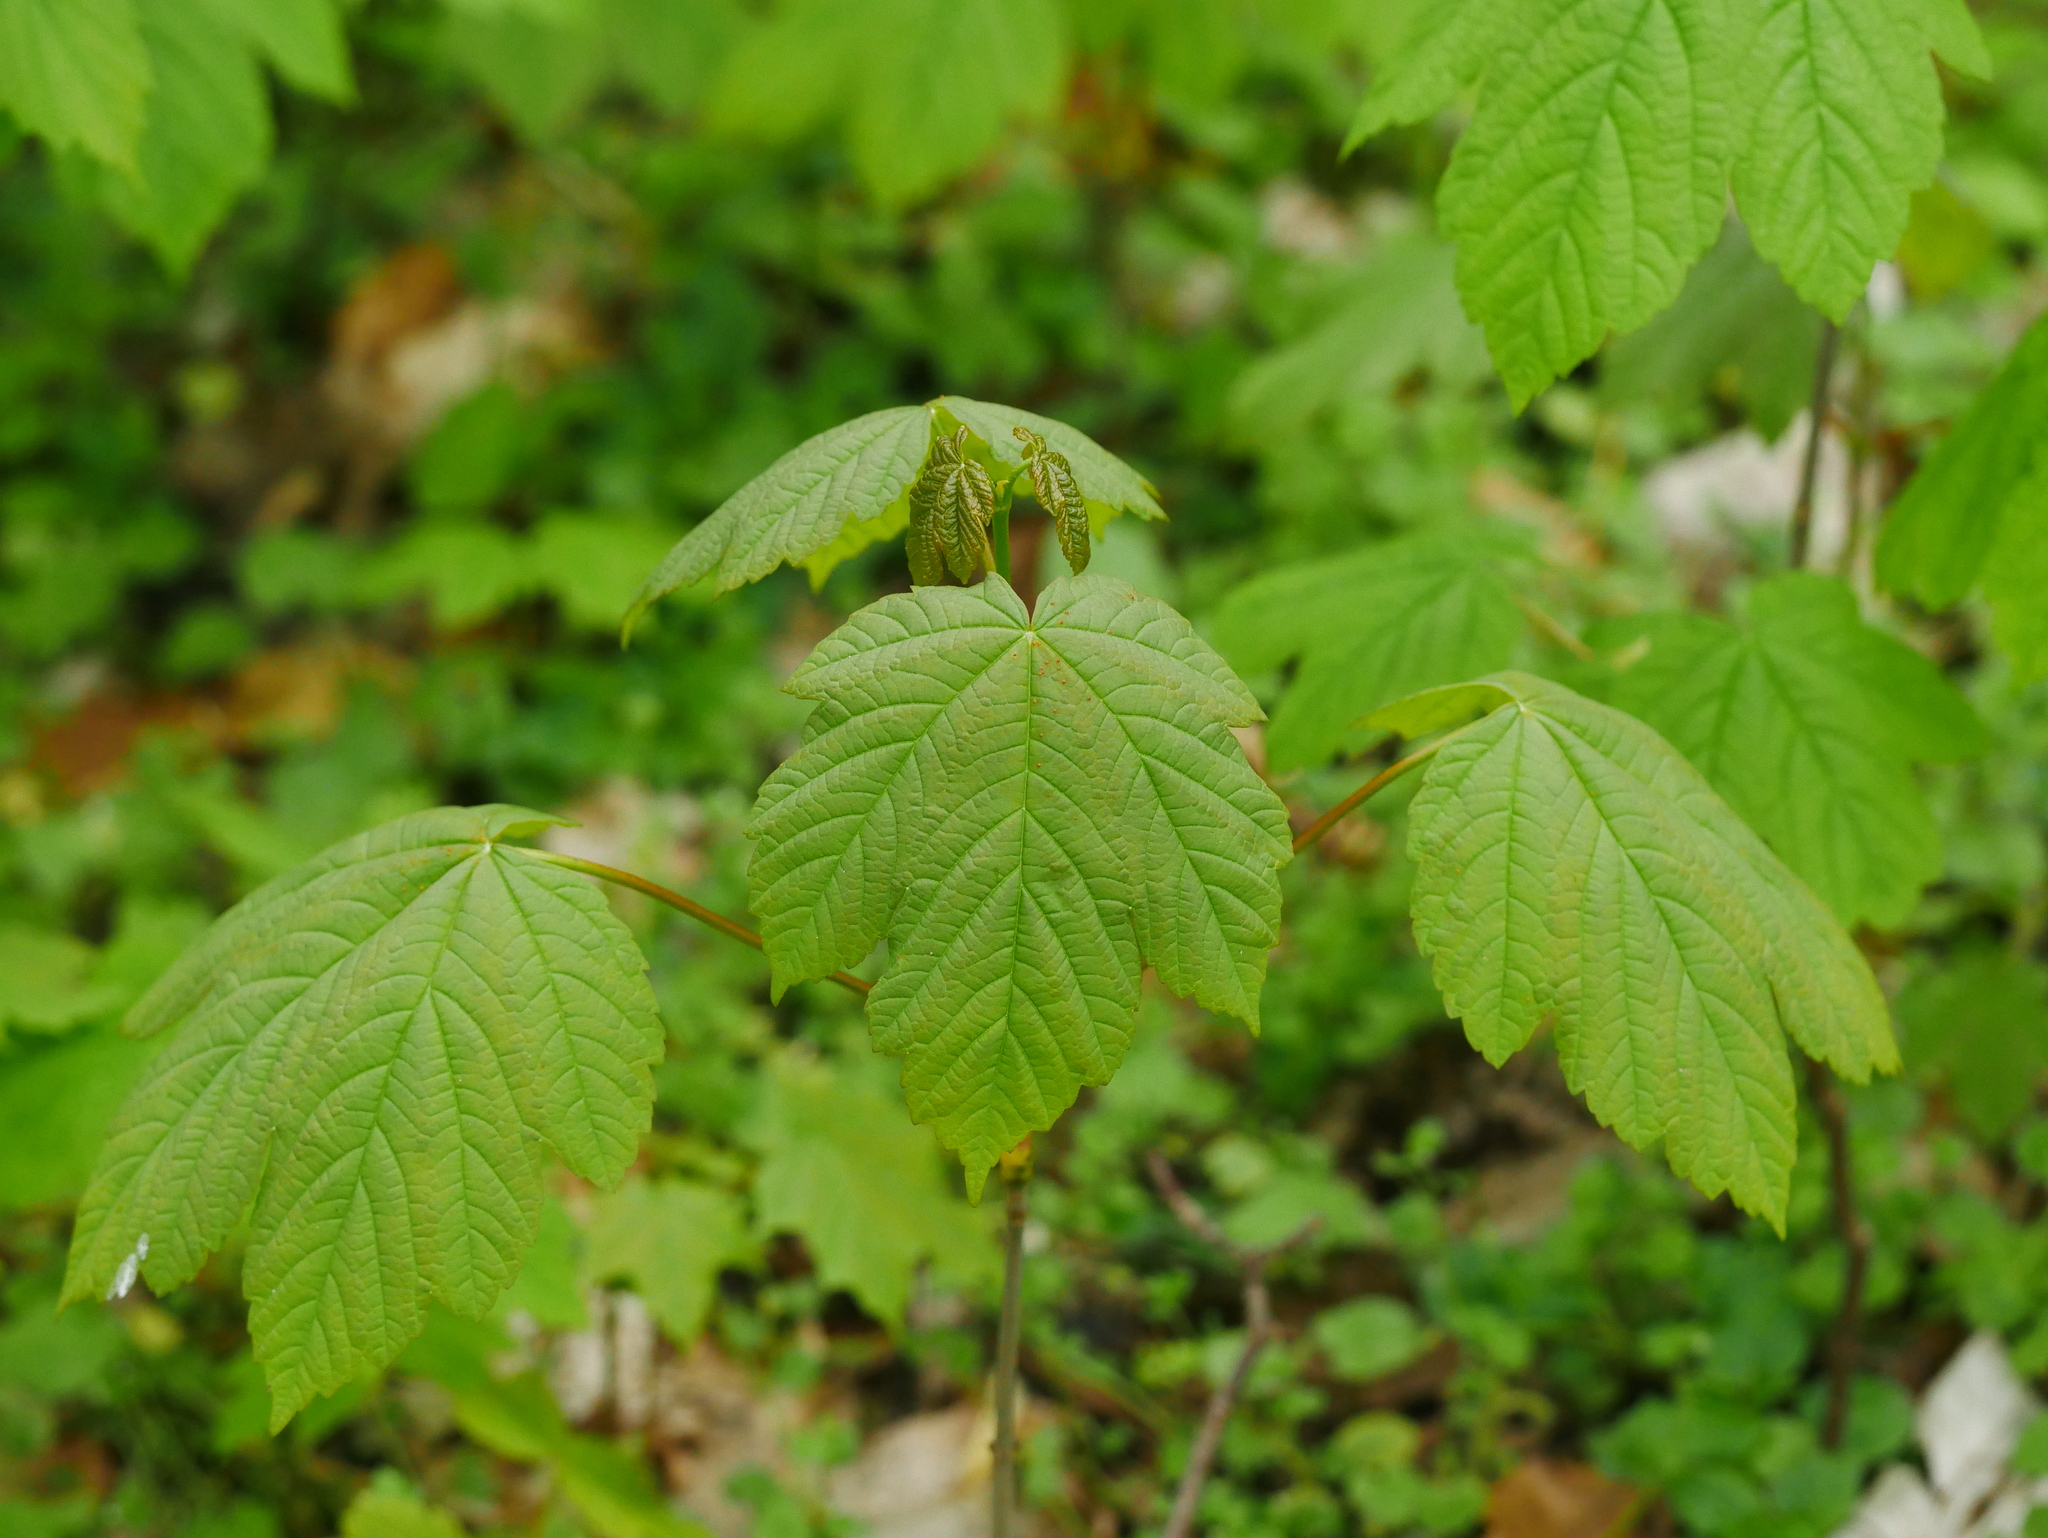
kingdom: Plantae
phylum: Tracheophyta
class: Magnoliopsida
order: Sapindales
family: Sapindaceae
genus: Acer
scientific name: Acer pseudoplatanus
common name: Sycamore
